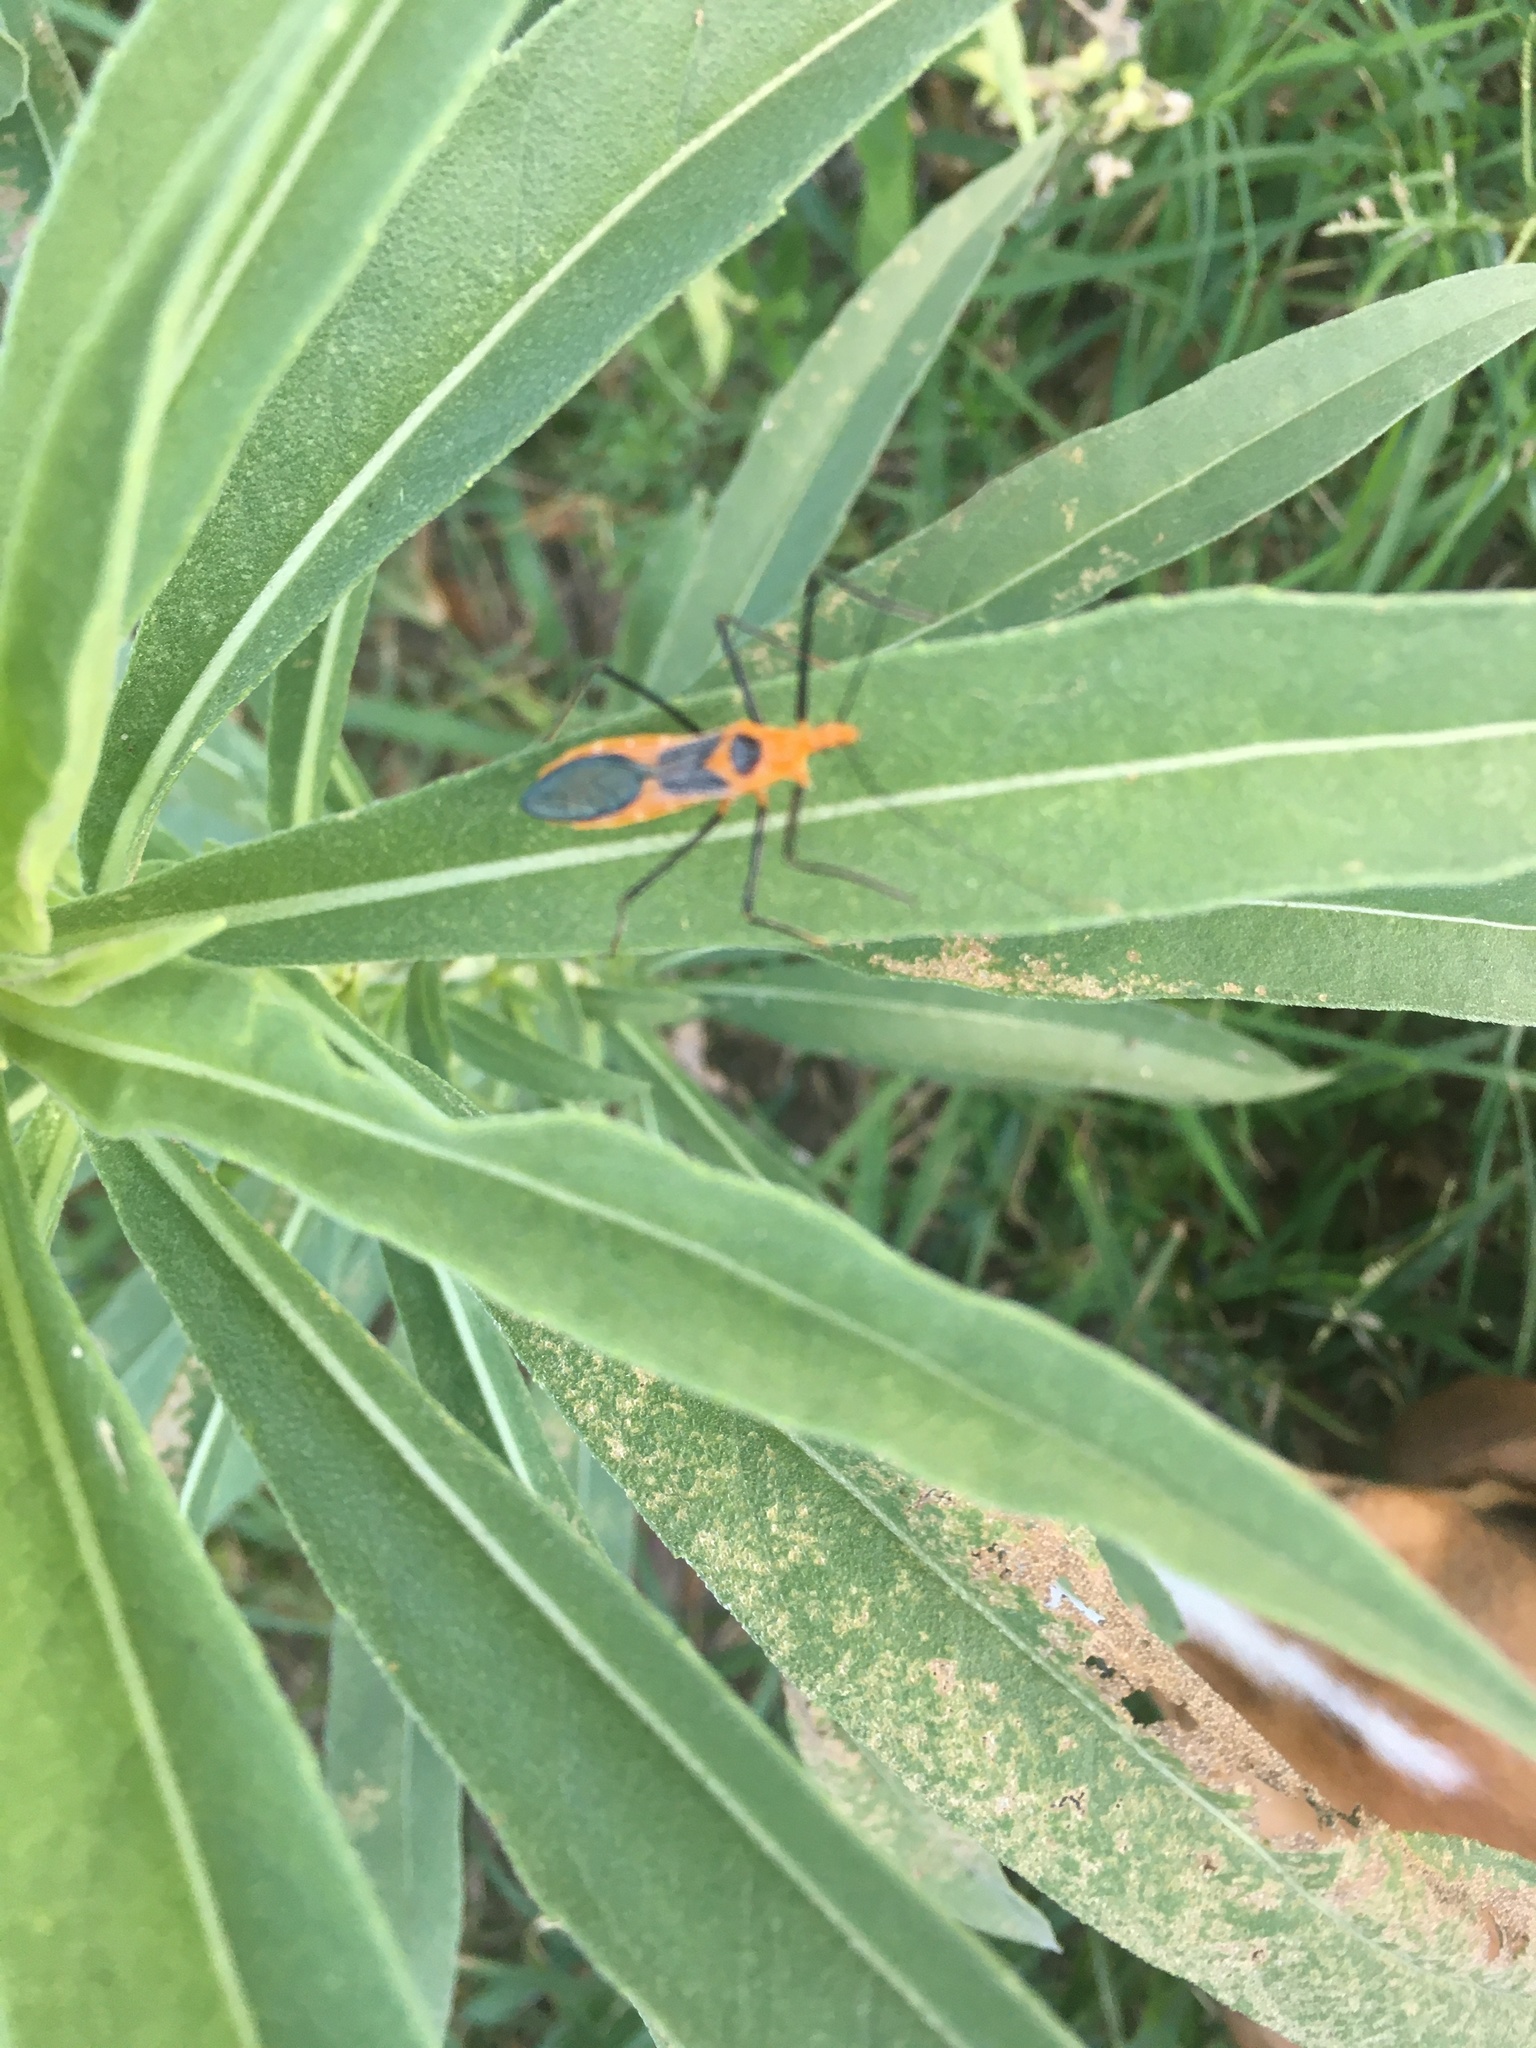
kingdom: Animalia
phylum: Arthropoda
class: Insecta
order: Hemiptera
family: Reduviidae
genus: Zelus
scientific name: Zelus longipes
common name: Milkweed assassin bug
